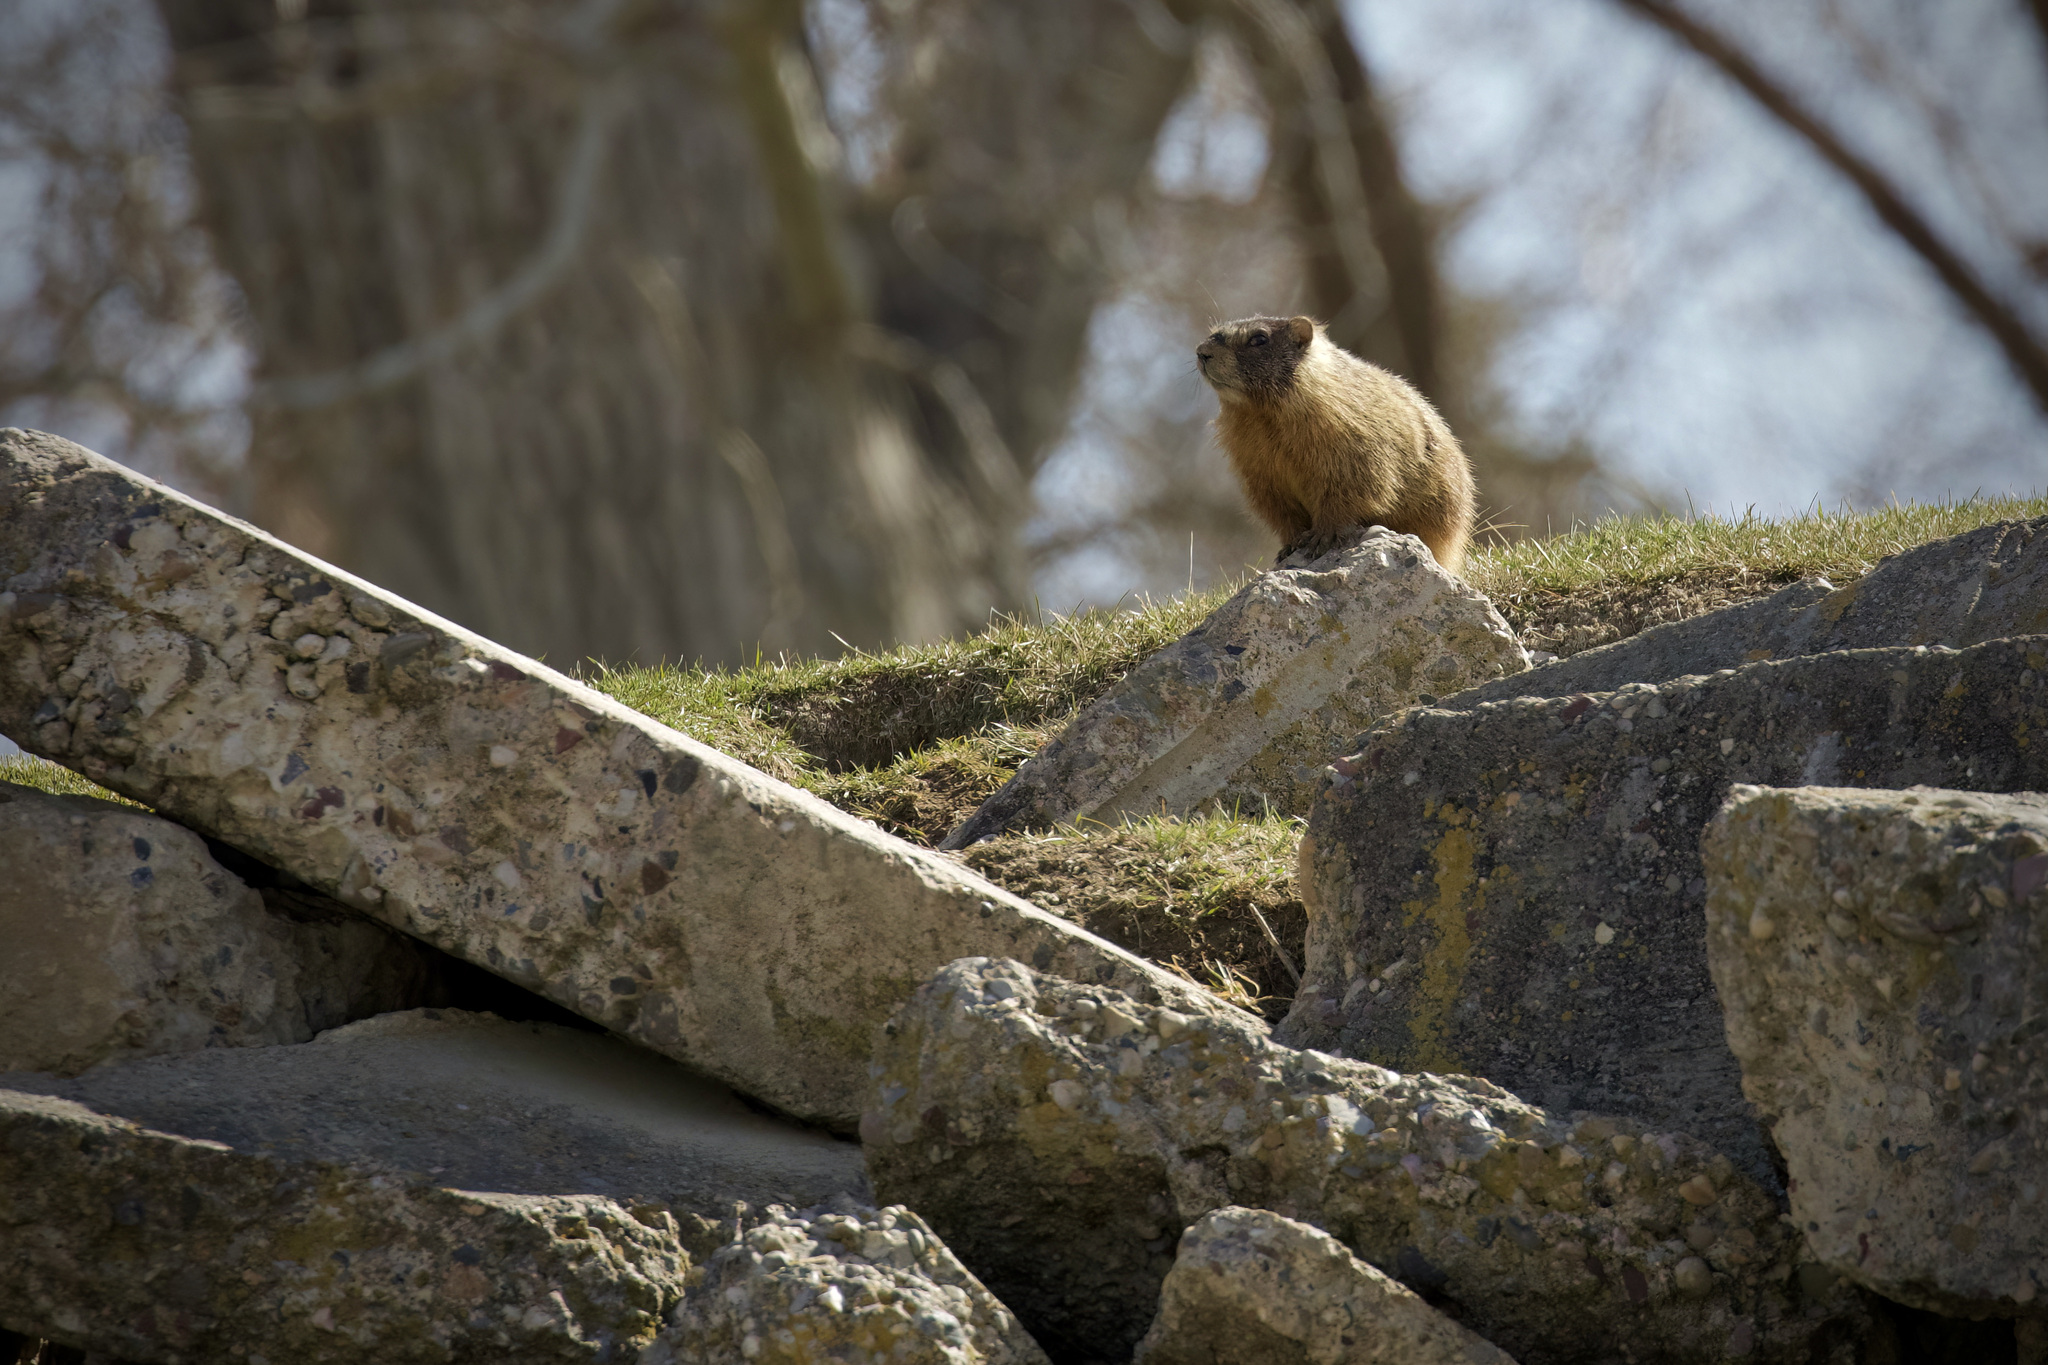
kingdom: Animalia
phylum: Chordata
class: Mammalia
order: Rodentia
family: Sciuridae
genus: Marmota
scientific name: Marmota flaviventris
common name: Yellow-bellied marmot
